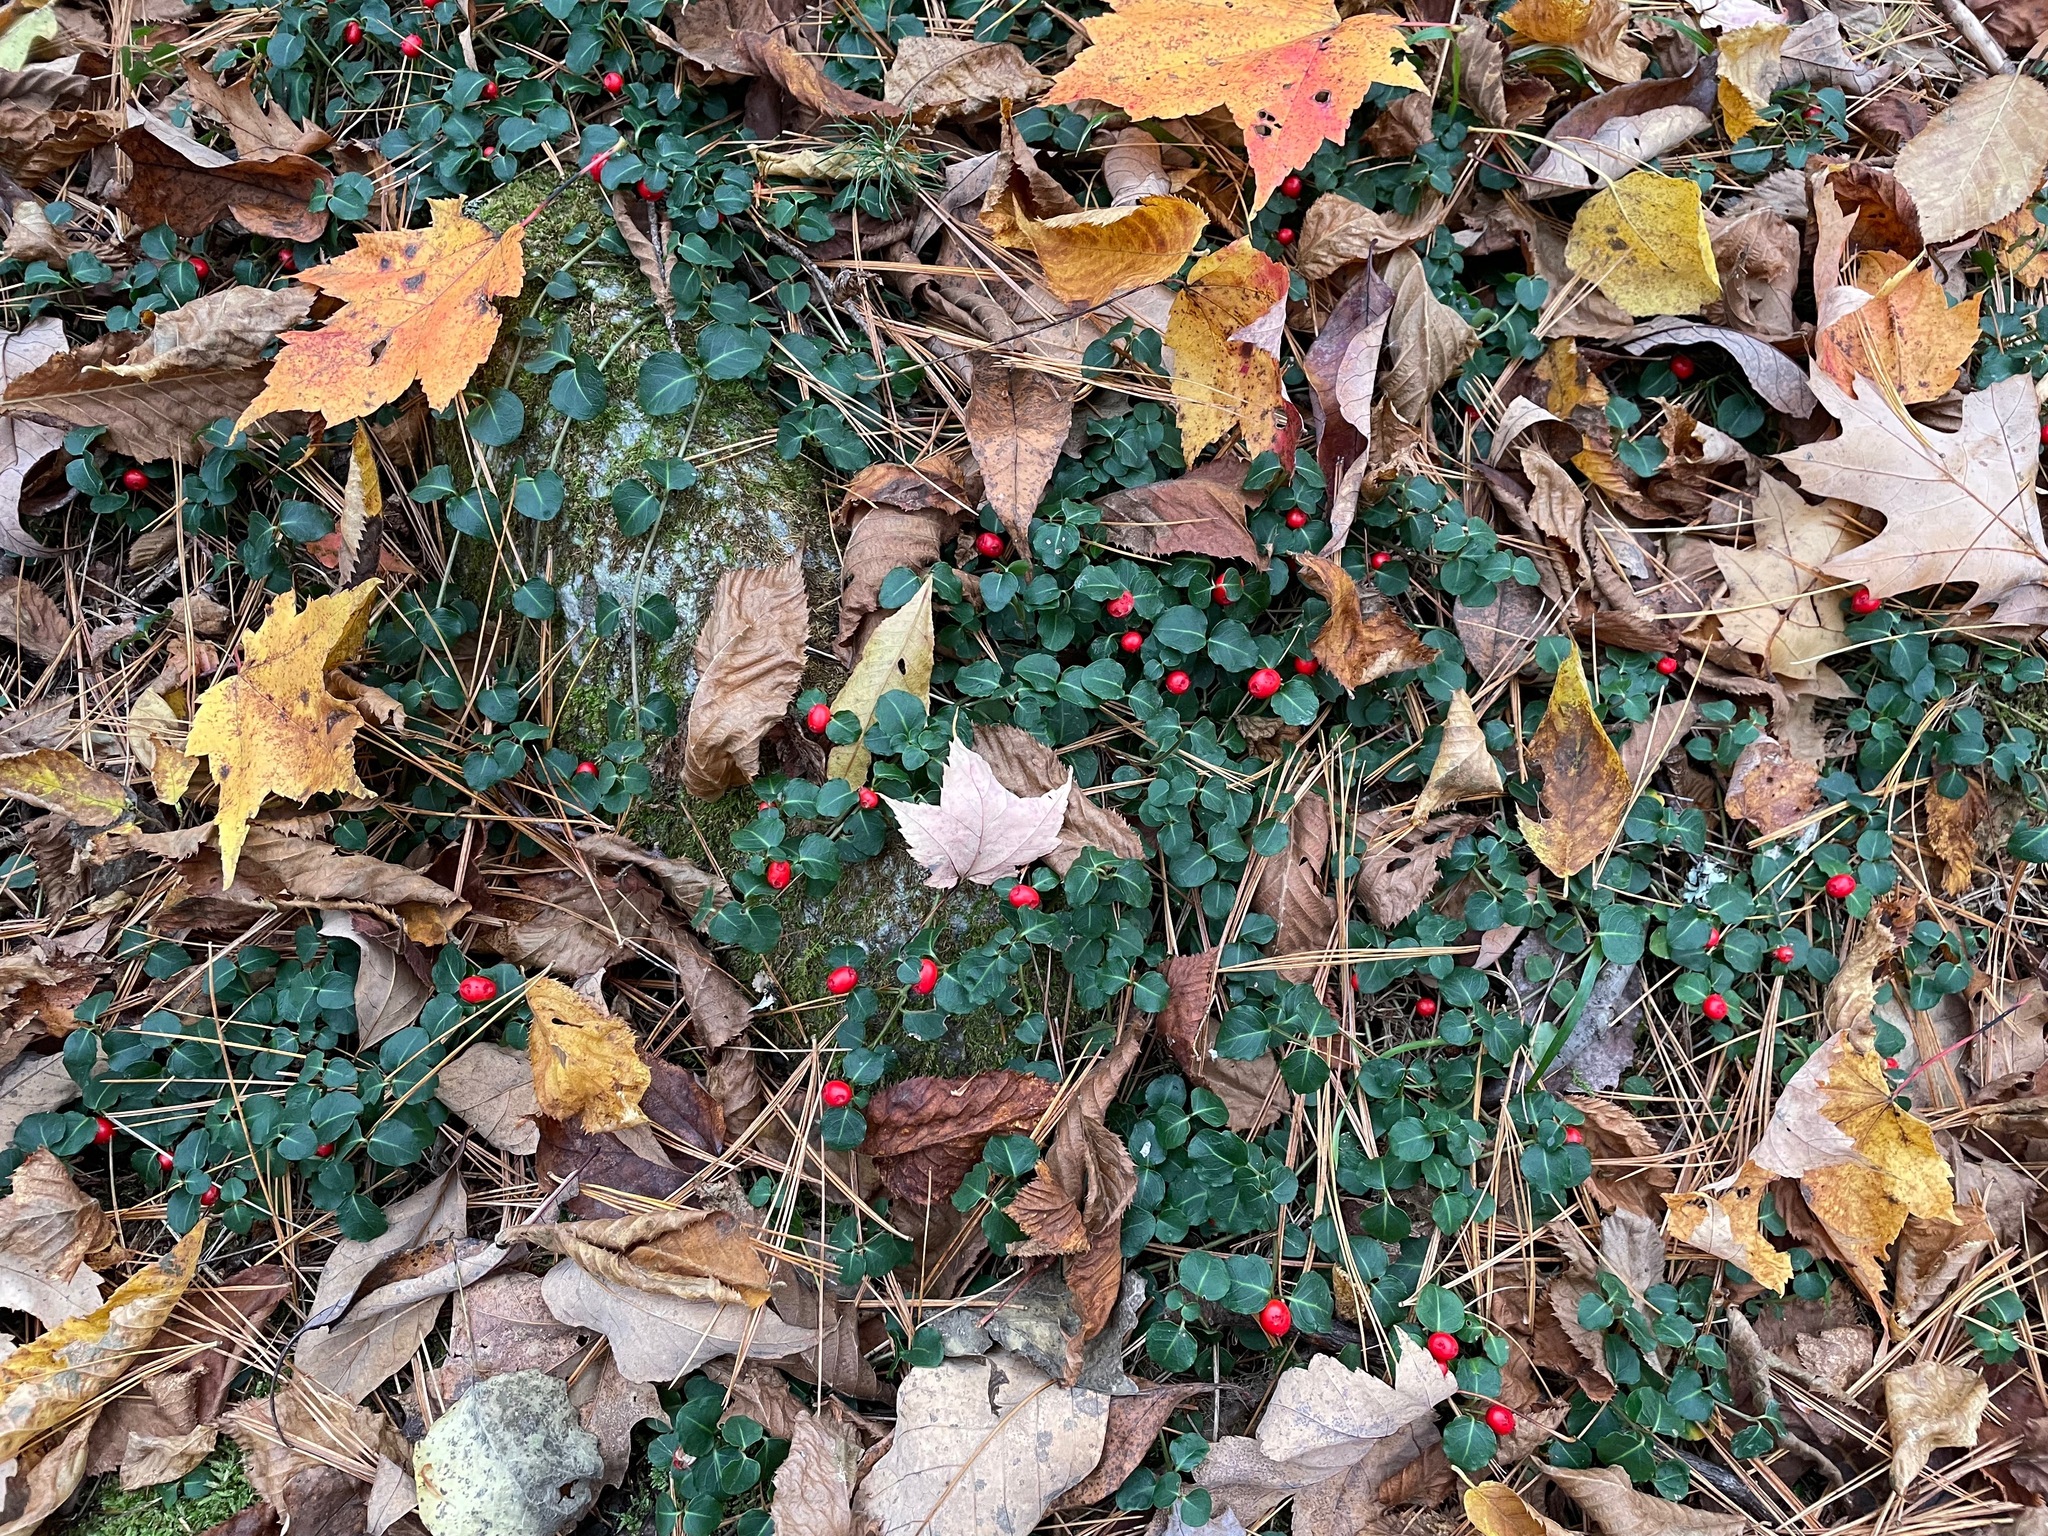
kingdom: Plantae
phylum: Tracheophyta
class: Magnoliopsida
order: Gentianales
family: Rubiaceae
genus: Mitchella
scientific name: Mitchella repens
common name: Partridge-berry
